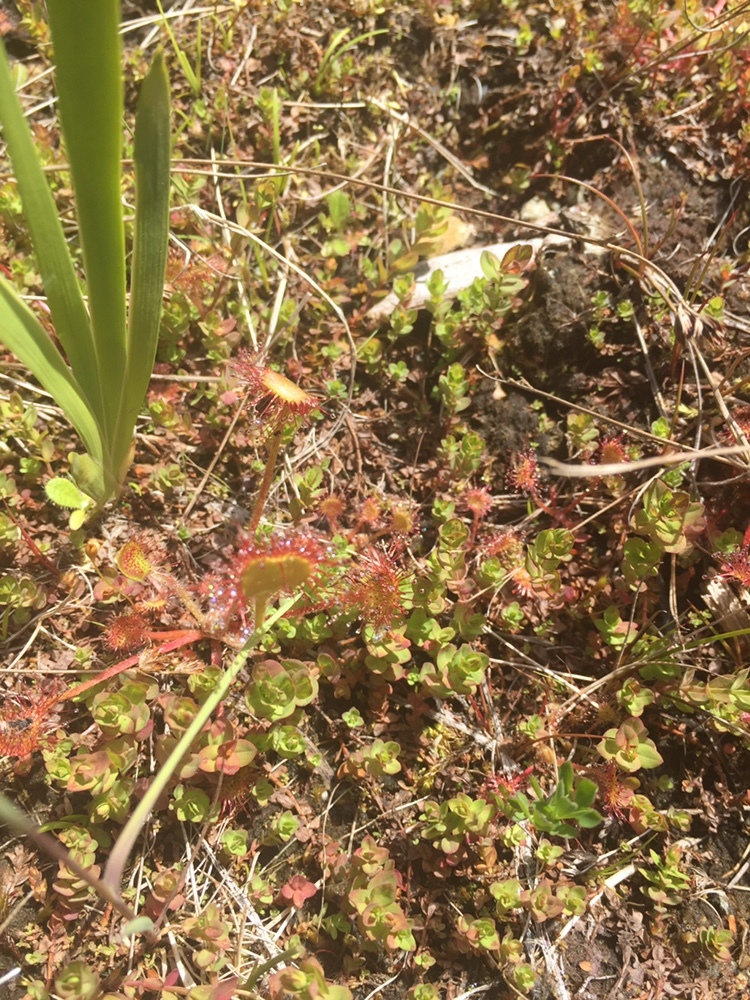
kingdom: Plantae
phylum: Tracheophyta
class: Magnoliopsida
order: Caryophyllales
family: Droseraceae
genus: Drosera
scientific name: Drosera rotundifolia
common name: Round-leaved sundew
